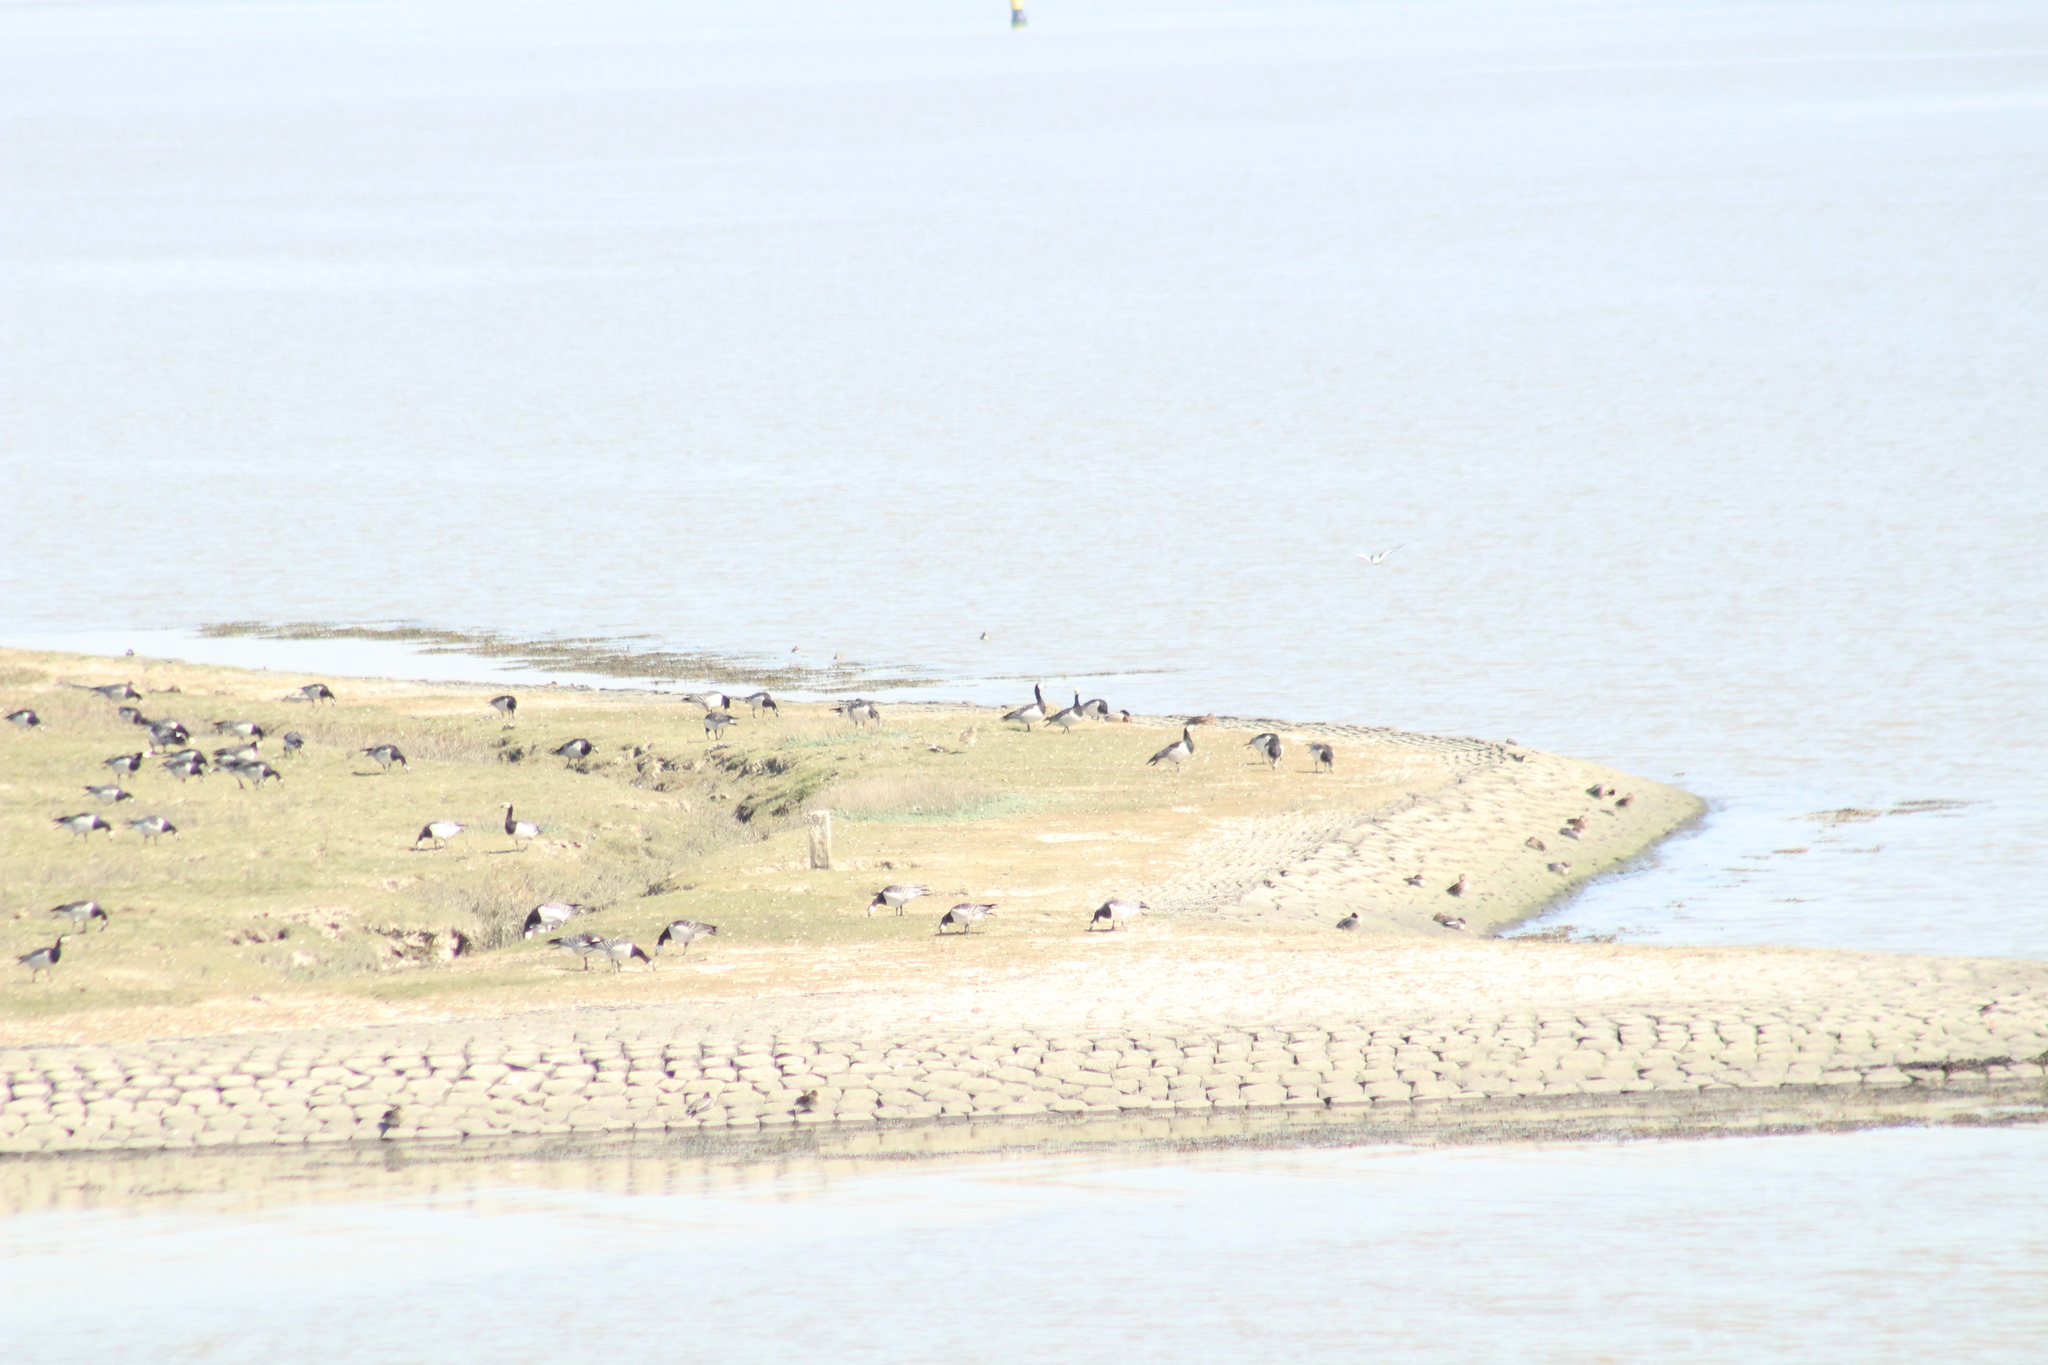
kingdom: Animalia
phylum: Chordata
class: Aves
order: Anseriformes
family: Anatidae
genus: Branta
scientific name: Branta leucopsis
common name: Barnacle goose
